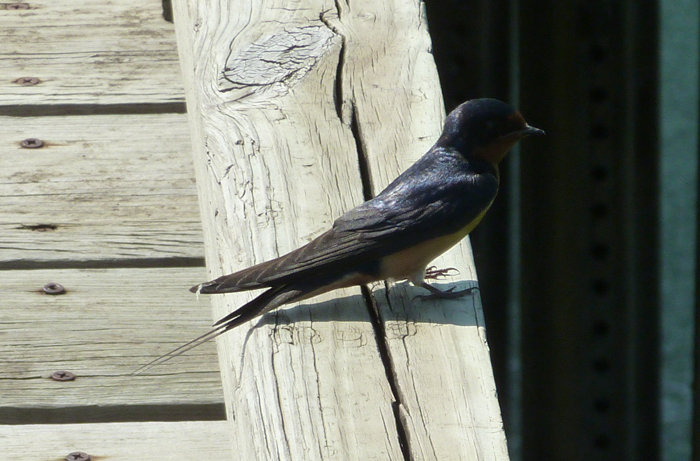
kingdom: Animalia
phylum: Chordata
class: Aves
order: Passeriformes
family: Hirundinidae
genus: Hirundo
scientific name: Hirundo rustica
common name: Barn swallow
